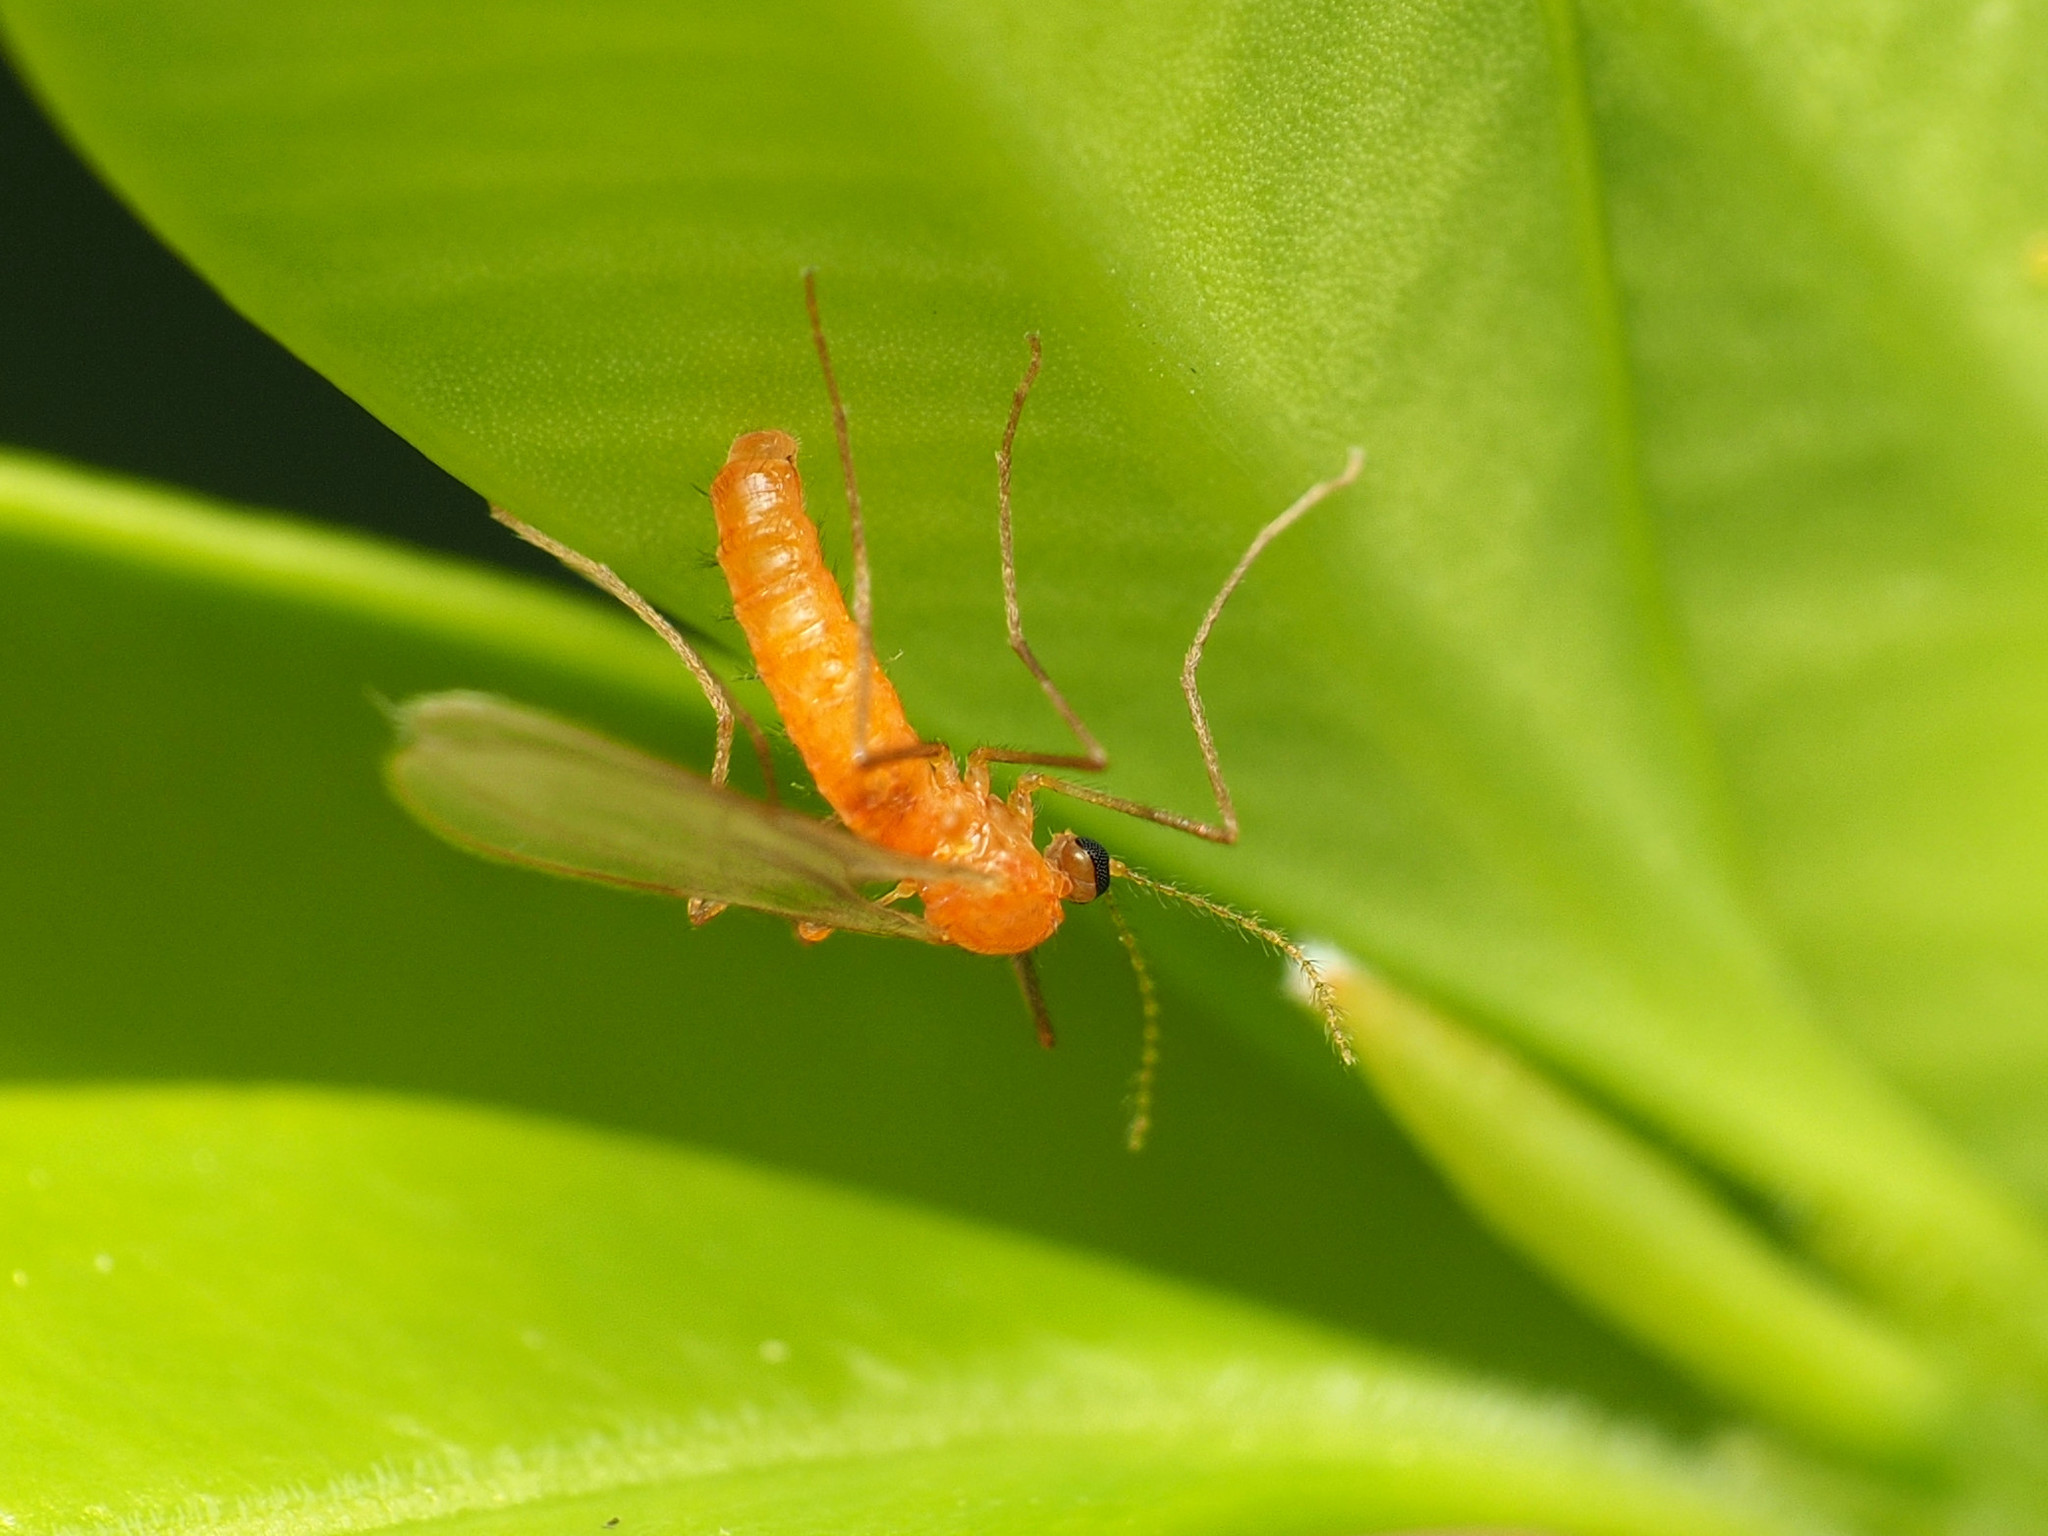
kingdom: Animalia
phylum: Arthropoda
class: Insecta
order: Diptera
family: Cecidomyiidae
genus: Monarthropalpus
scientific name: Monarthropalpus flavus
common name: Boxwood leafminer
